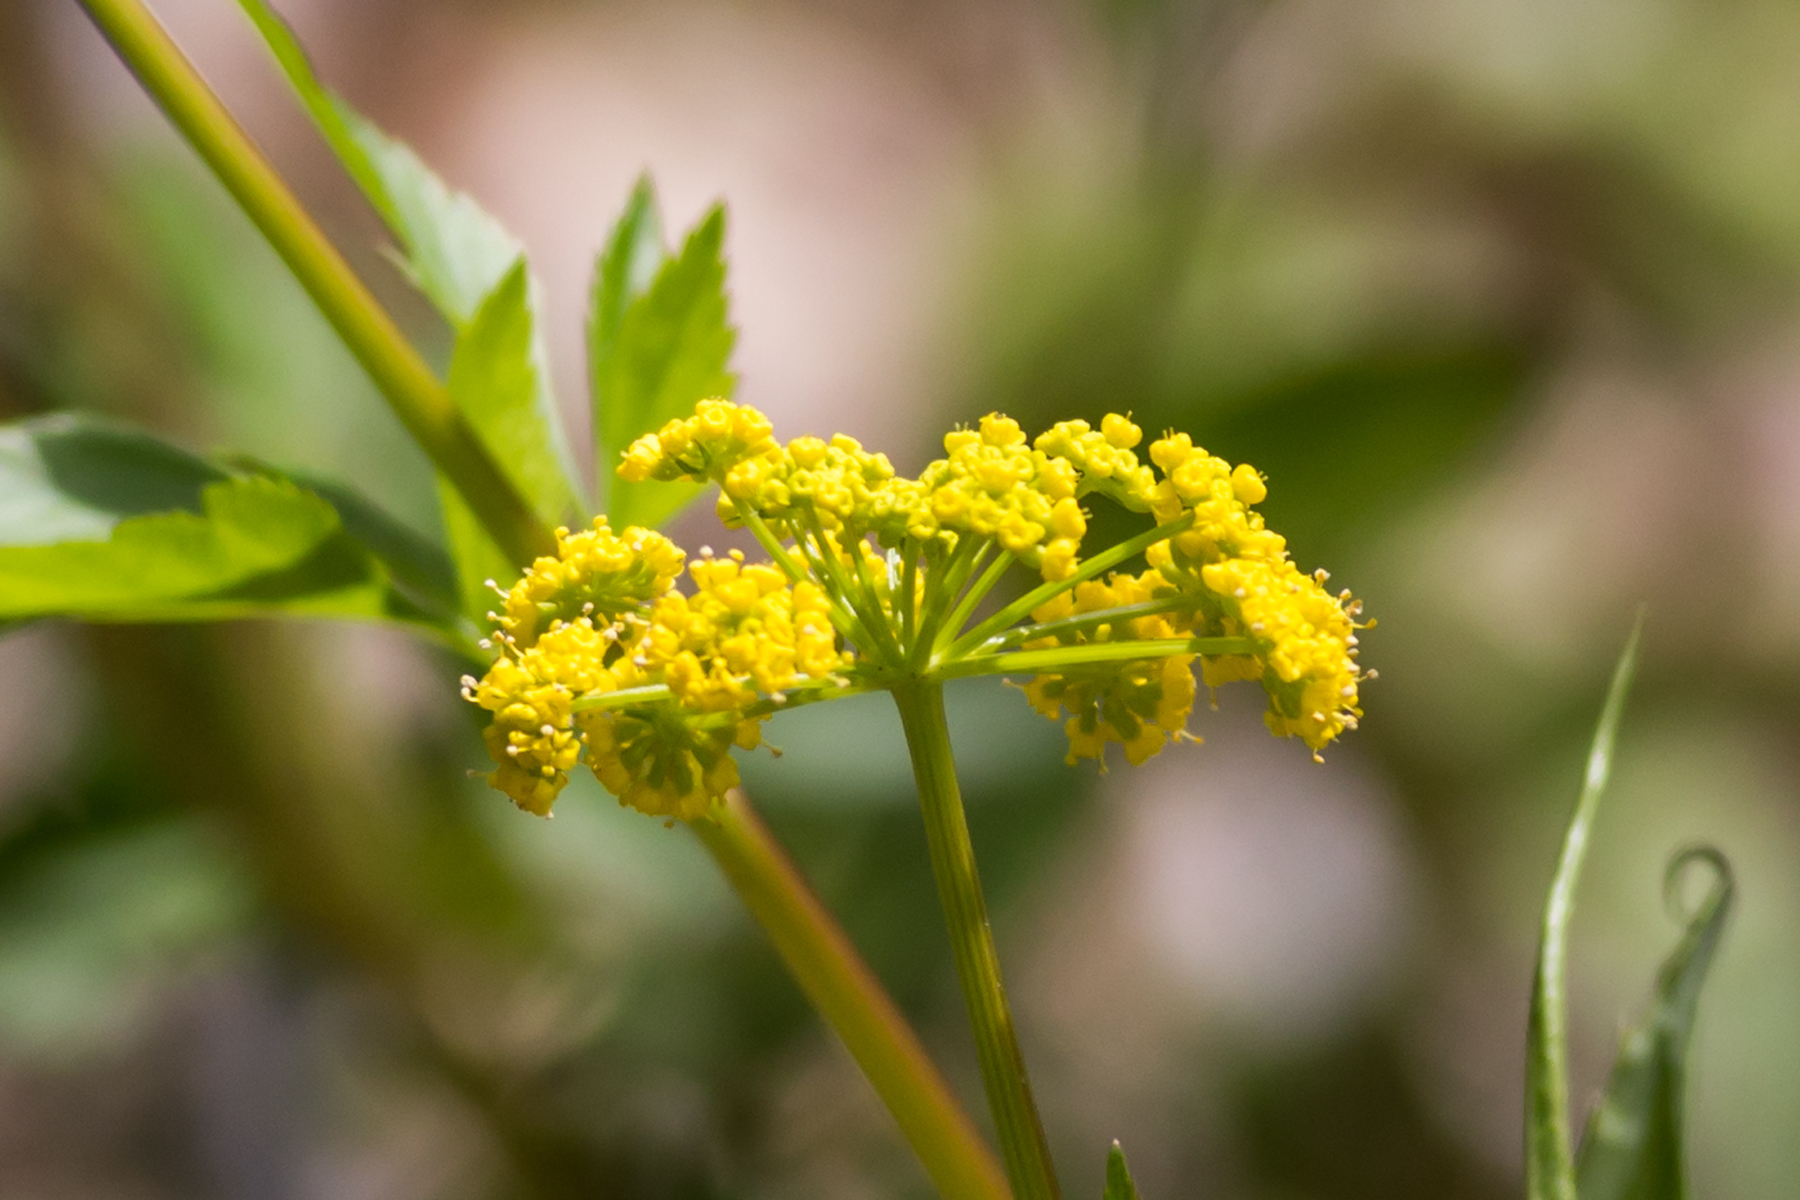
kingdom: Plantae
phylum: Tracheophyta
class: Magnoliopsida
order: Apiales
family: Apiaceae
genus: Zizia
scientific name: Zizia aurea
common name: Golden alexanders
